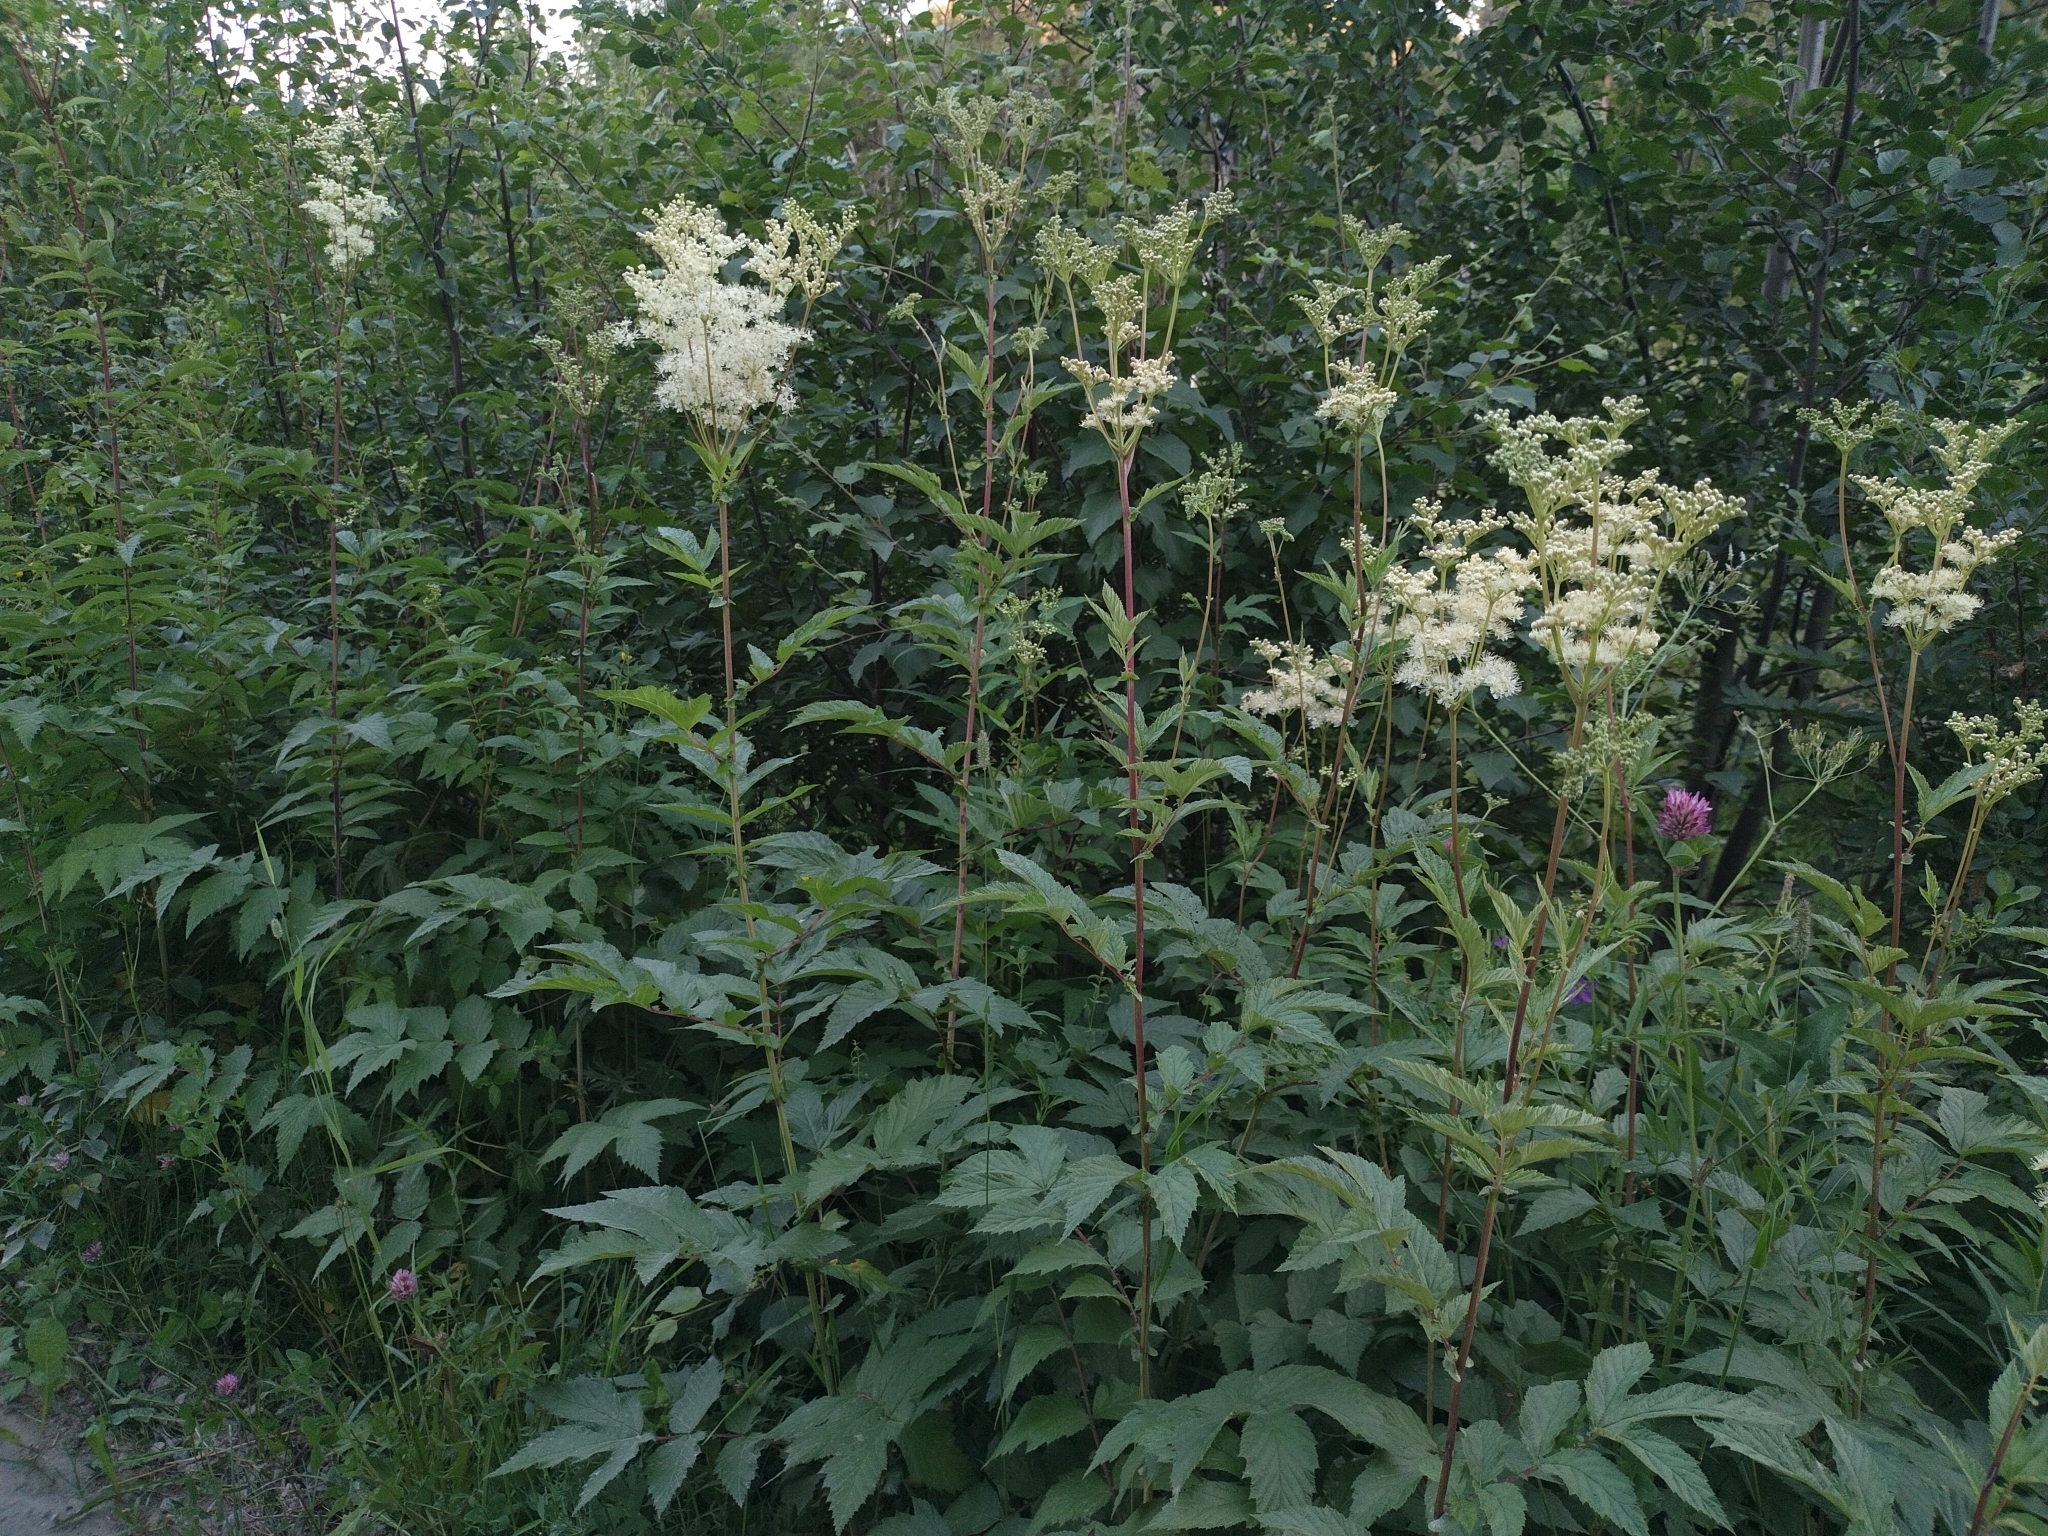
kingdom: Plantae
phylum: Tracheophyta
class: Magnoliopsida
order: Rosales
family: Rosaceae
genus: Filipendula
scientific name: Filipendula ulmaria
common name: Meadowsweet
